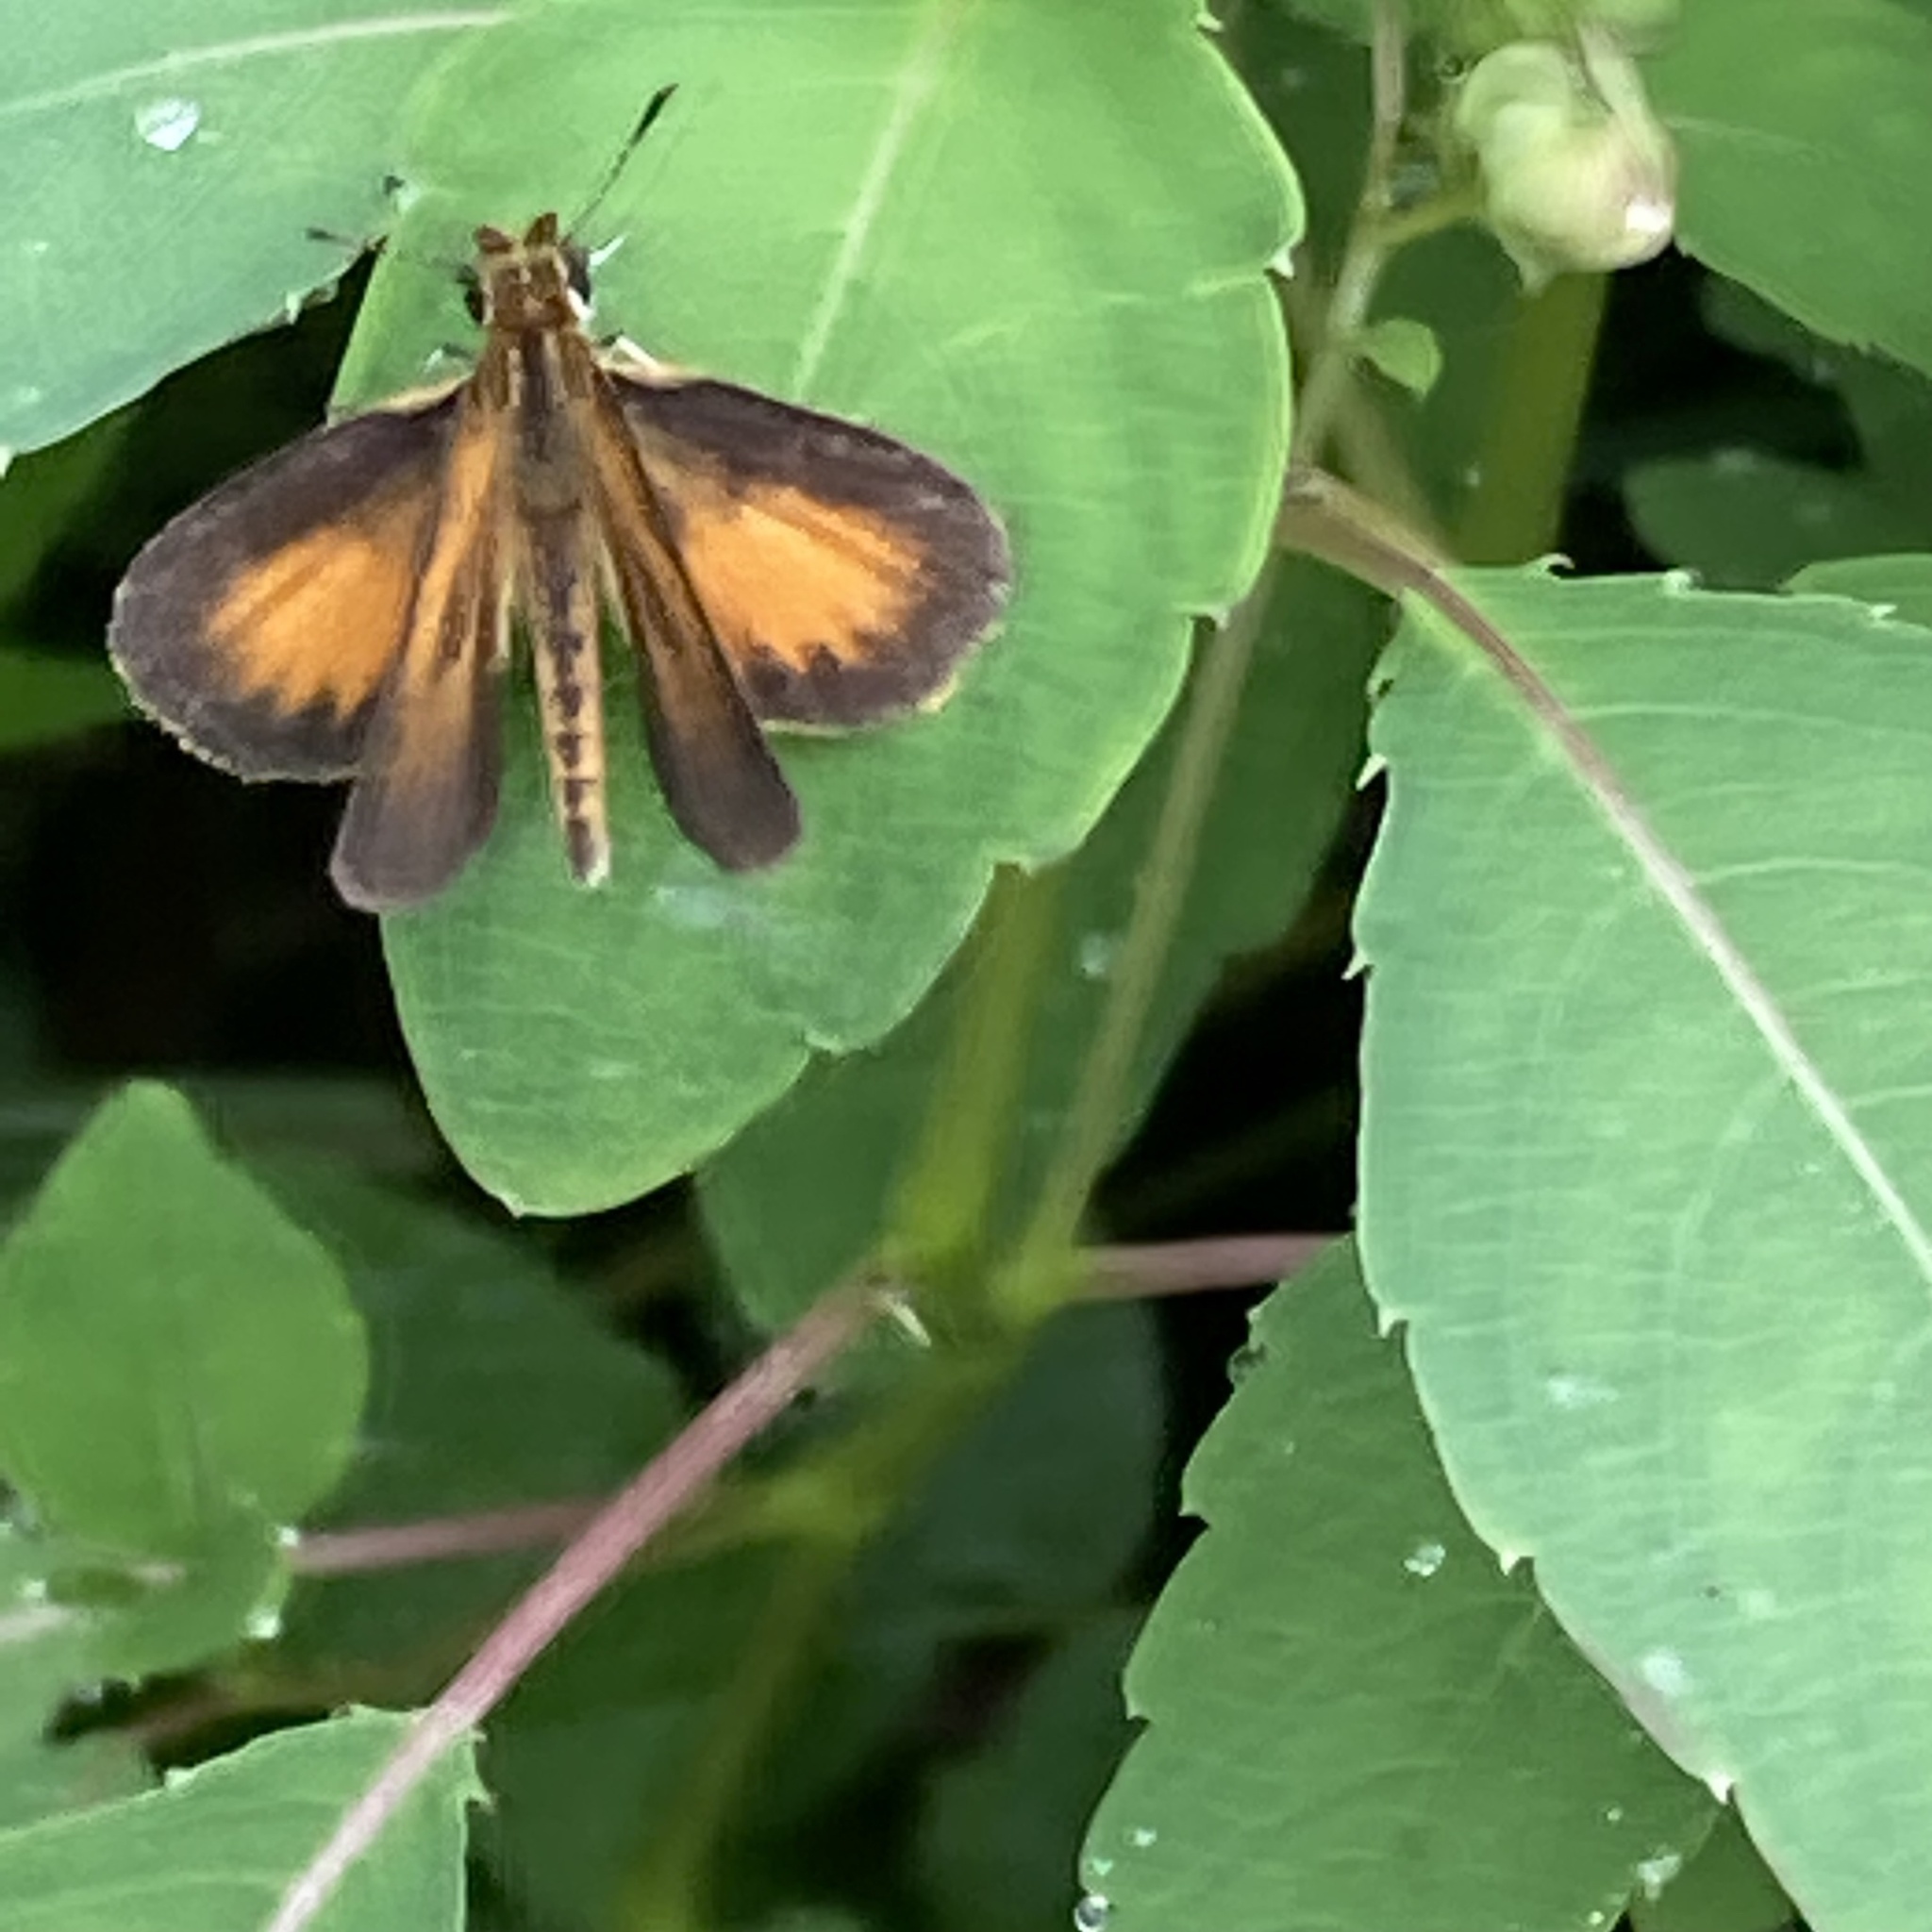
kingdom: Animalia
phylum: Arthropoda
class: Insecta
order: Lepidoptera
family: Hesperiidae
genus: Ancyloxypha
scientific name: Ancyloxypha numitor
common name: Least skipper
